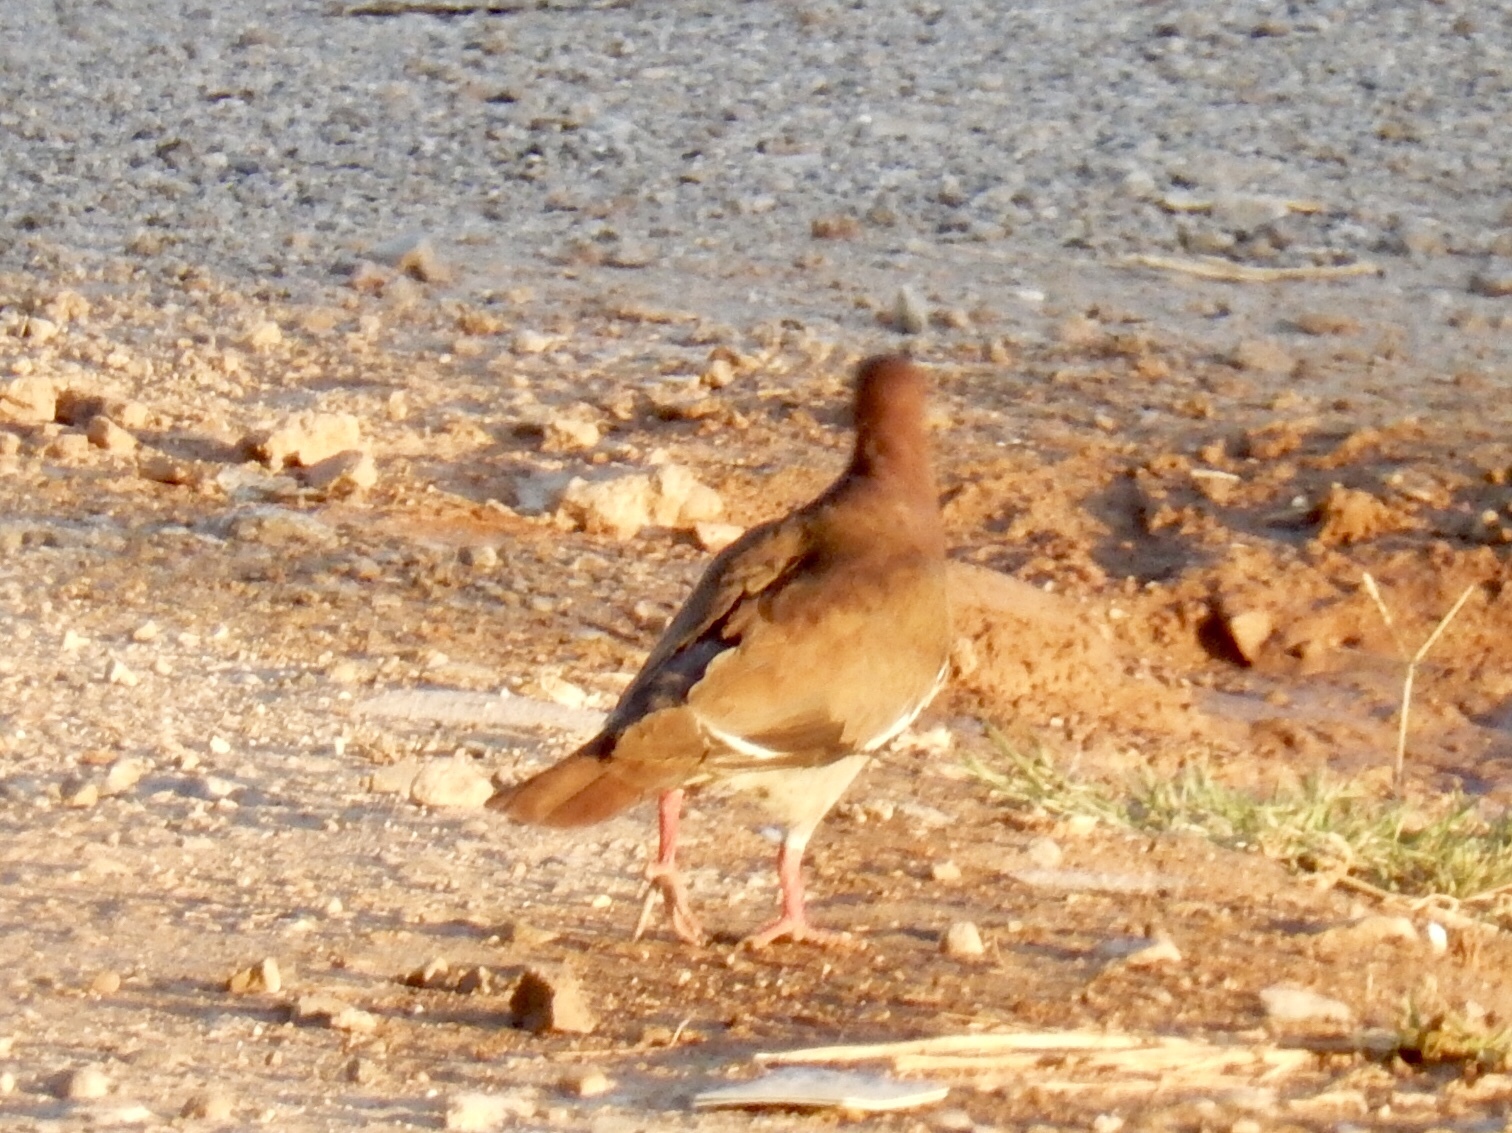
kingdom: Animalia
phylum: Chordata
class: Aves
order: Columbiformes
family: Columbidae
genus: Zenaida
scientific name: Zenaida asiatica
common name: White-winged dove
